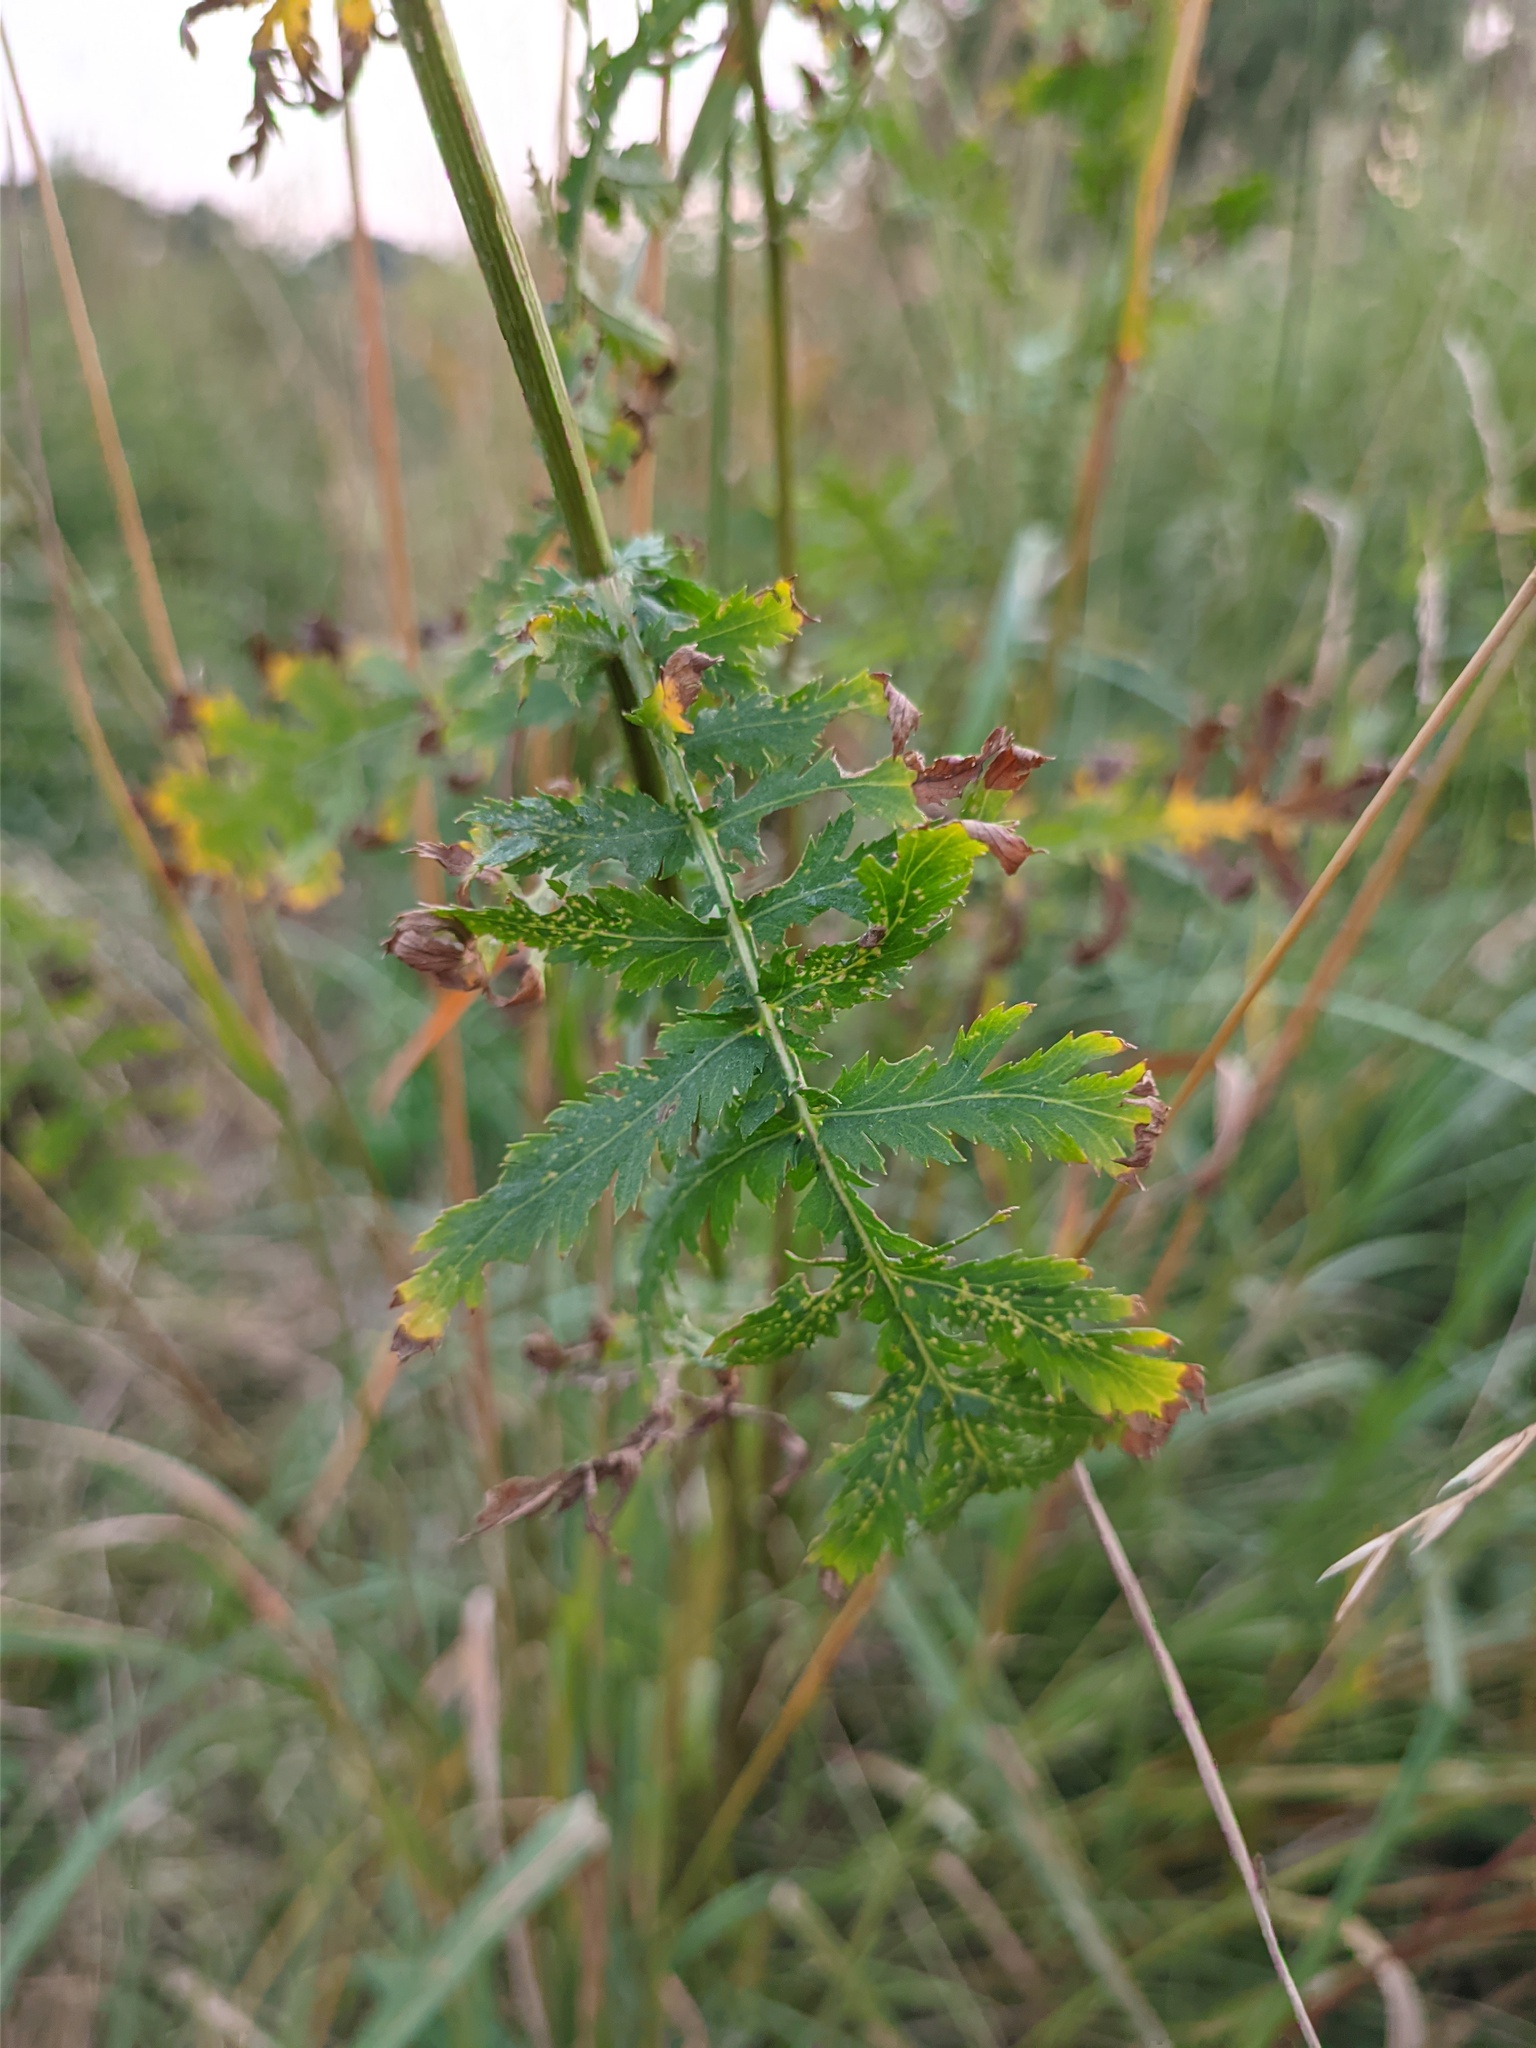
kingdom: Plantae
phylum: Tracheophyta
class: Magnoliopsida
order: Asterales
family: Asteraceae
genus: Tanacetum
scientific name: Tanacetum vulgare
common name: Common tansy
